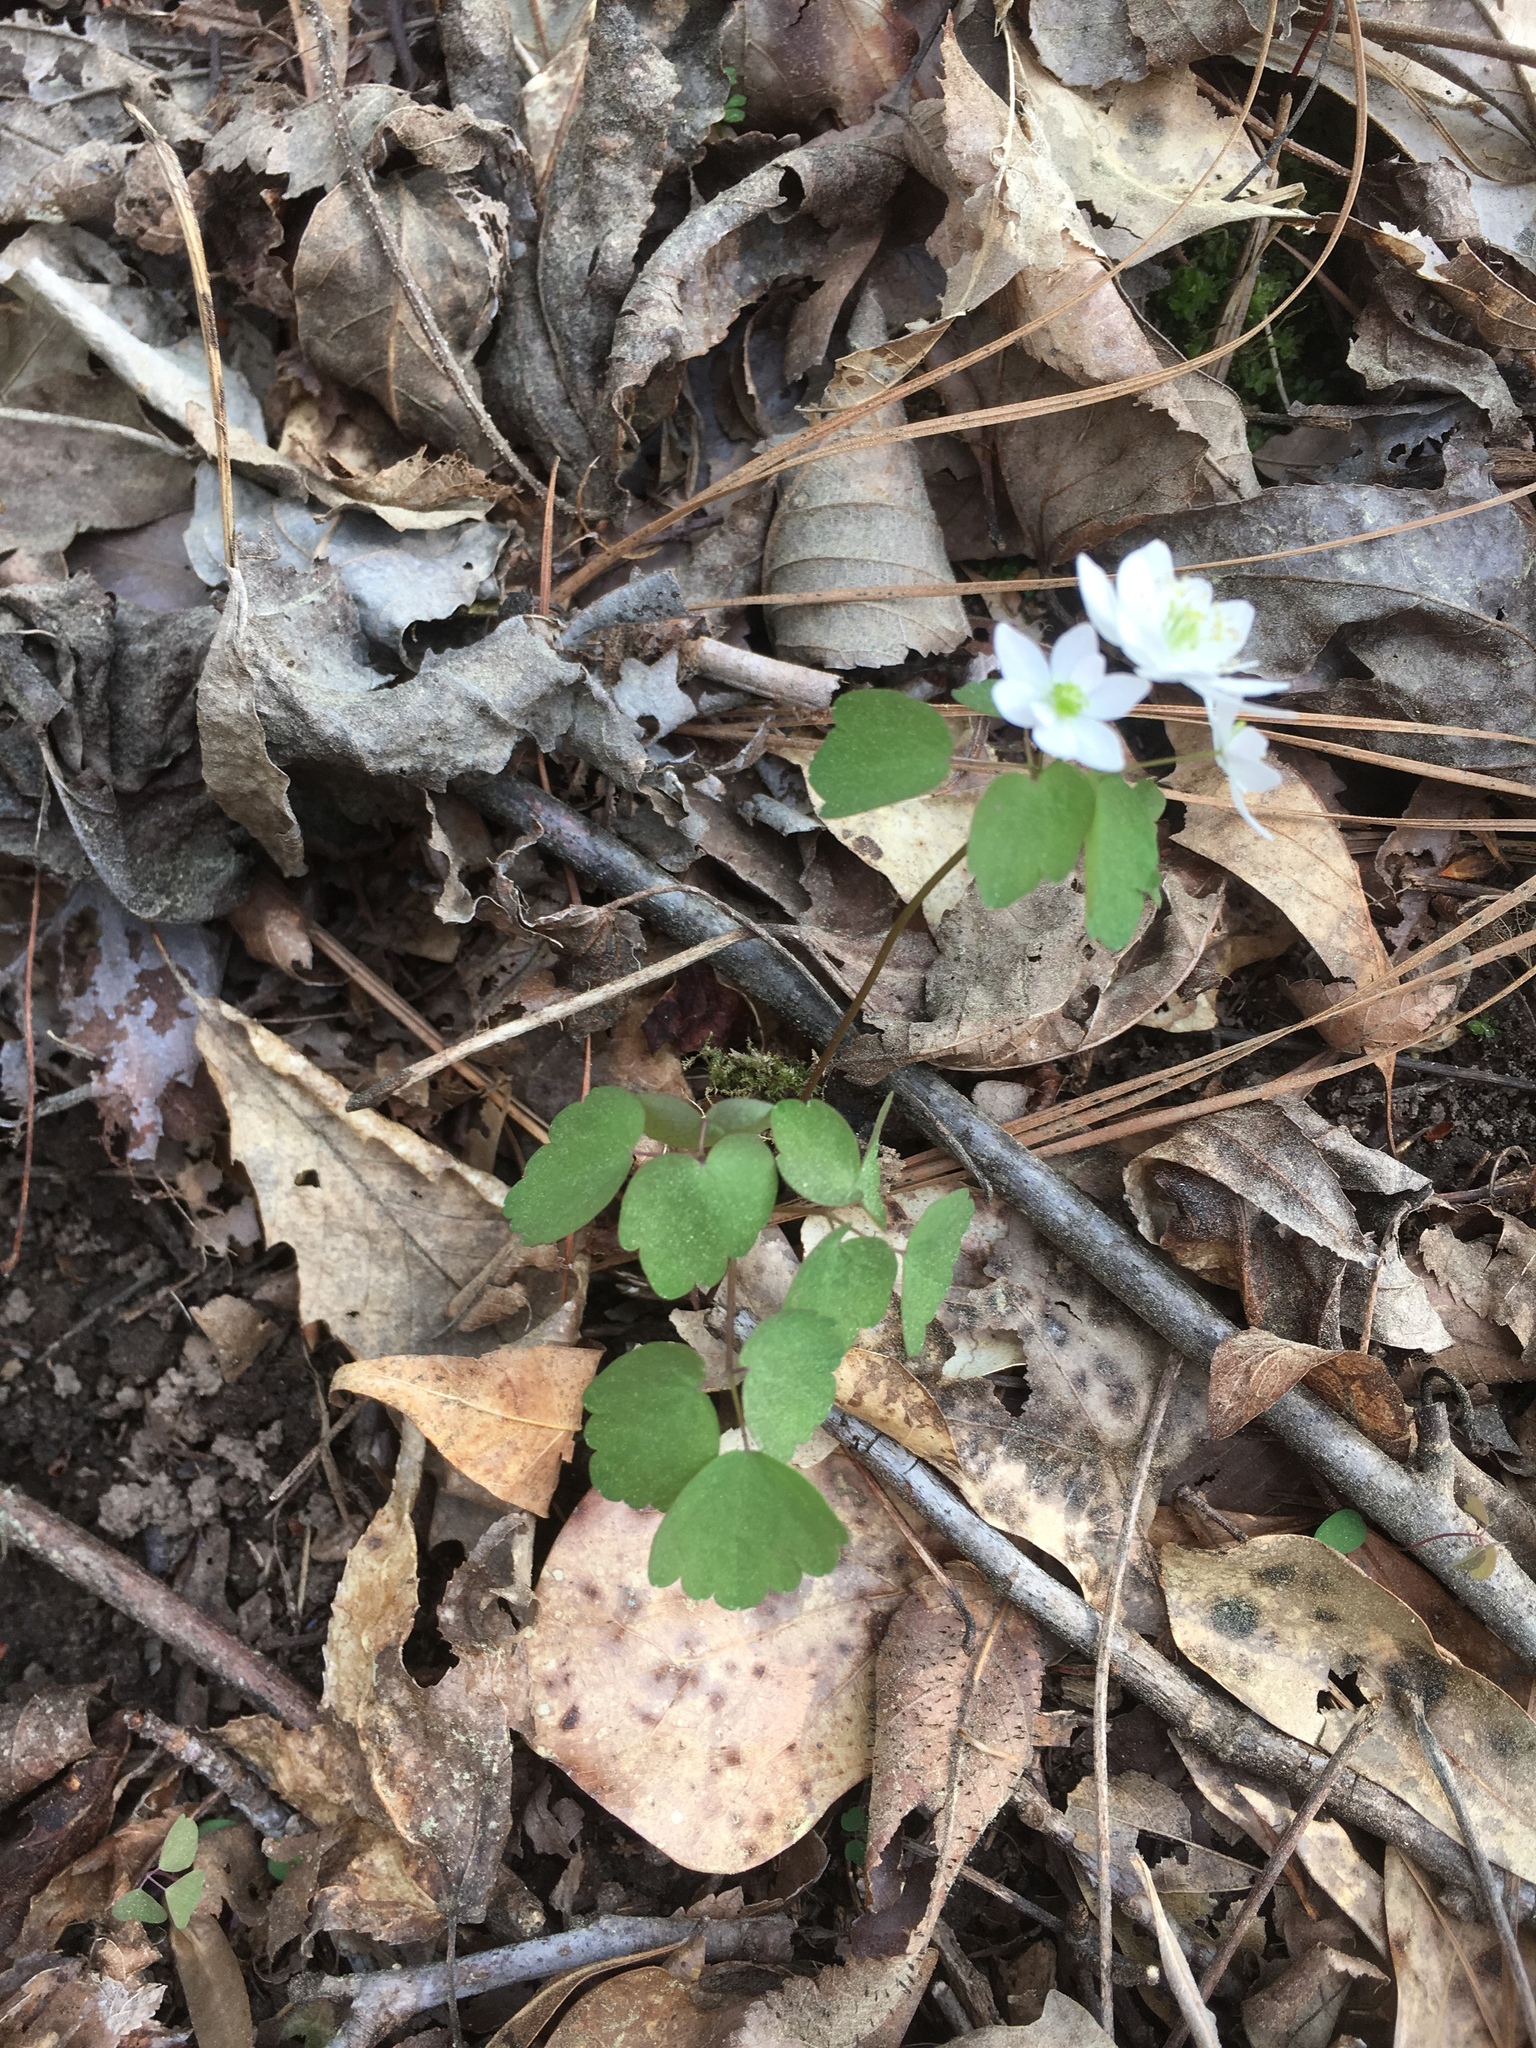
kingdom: Plantae
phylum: Tracheophyta
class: Magnoliopsida
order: Ranunculales
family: Ranunculaceae
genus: Thalictrum
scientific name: Thalictrum thalictroides
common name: Rue-anemone
